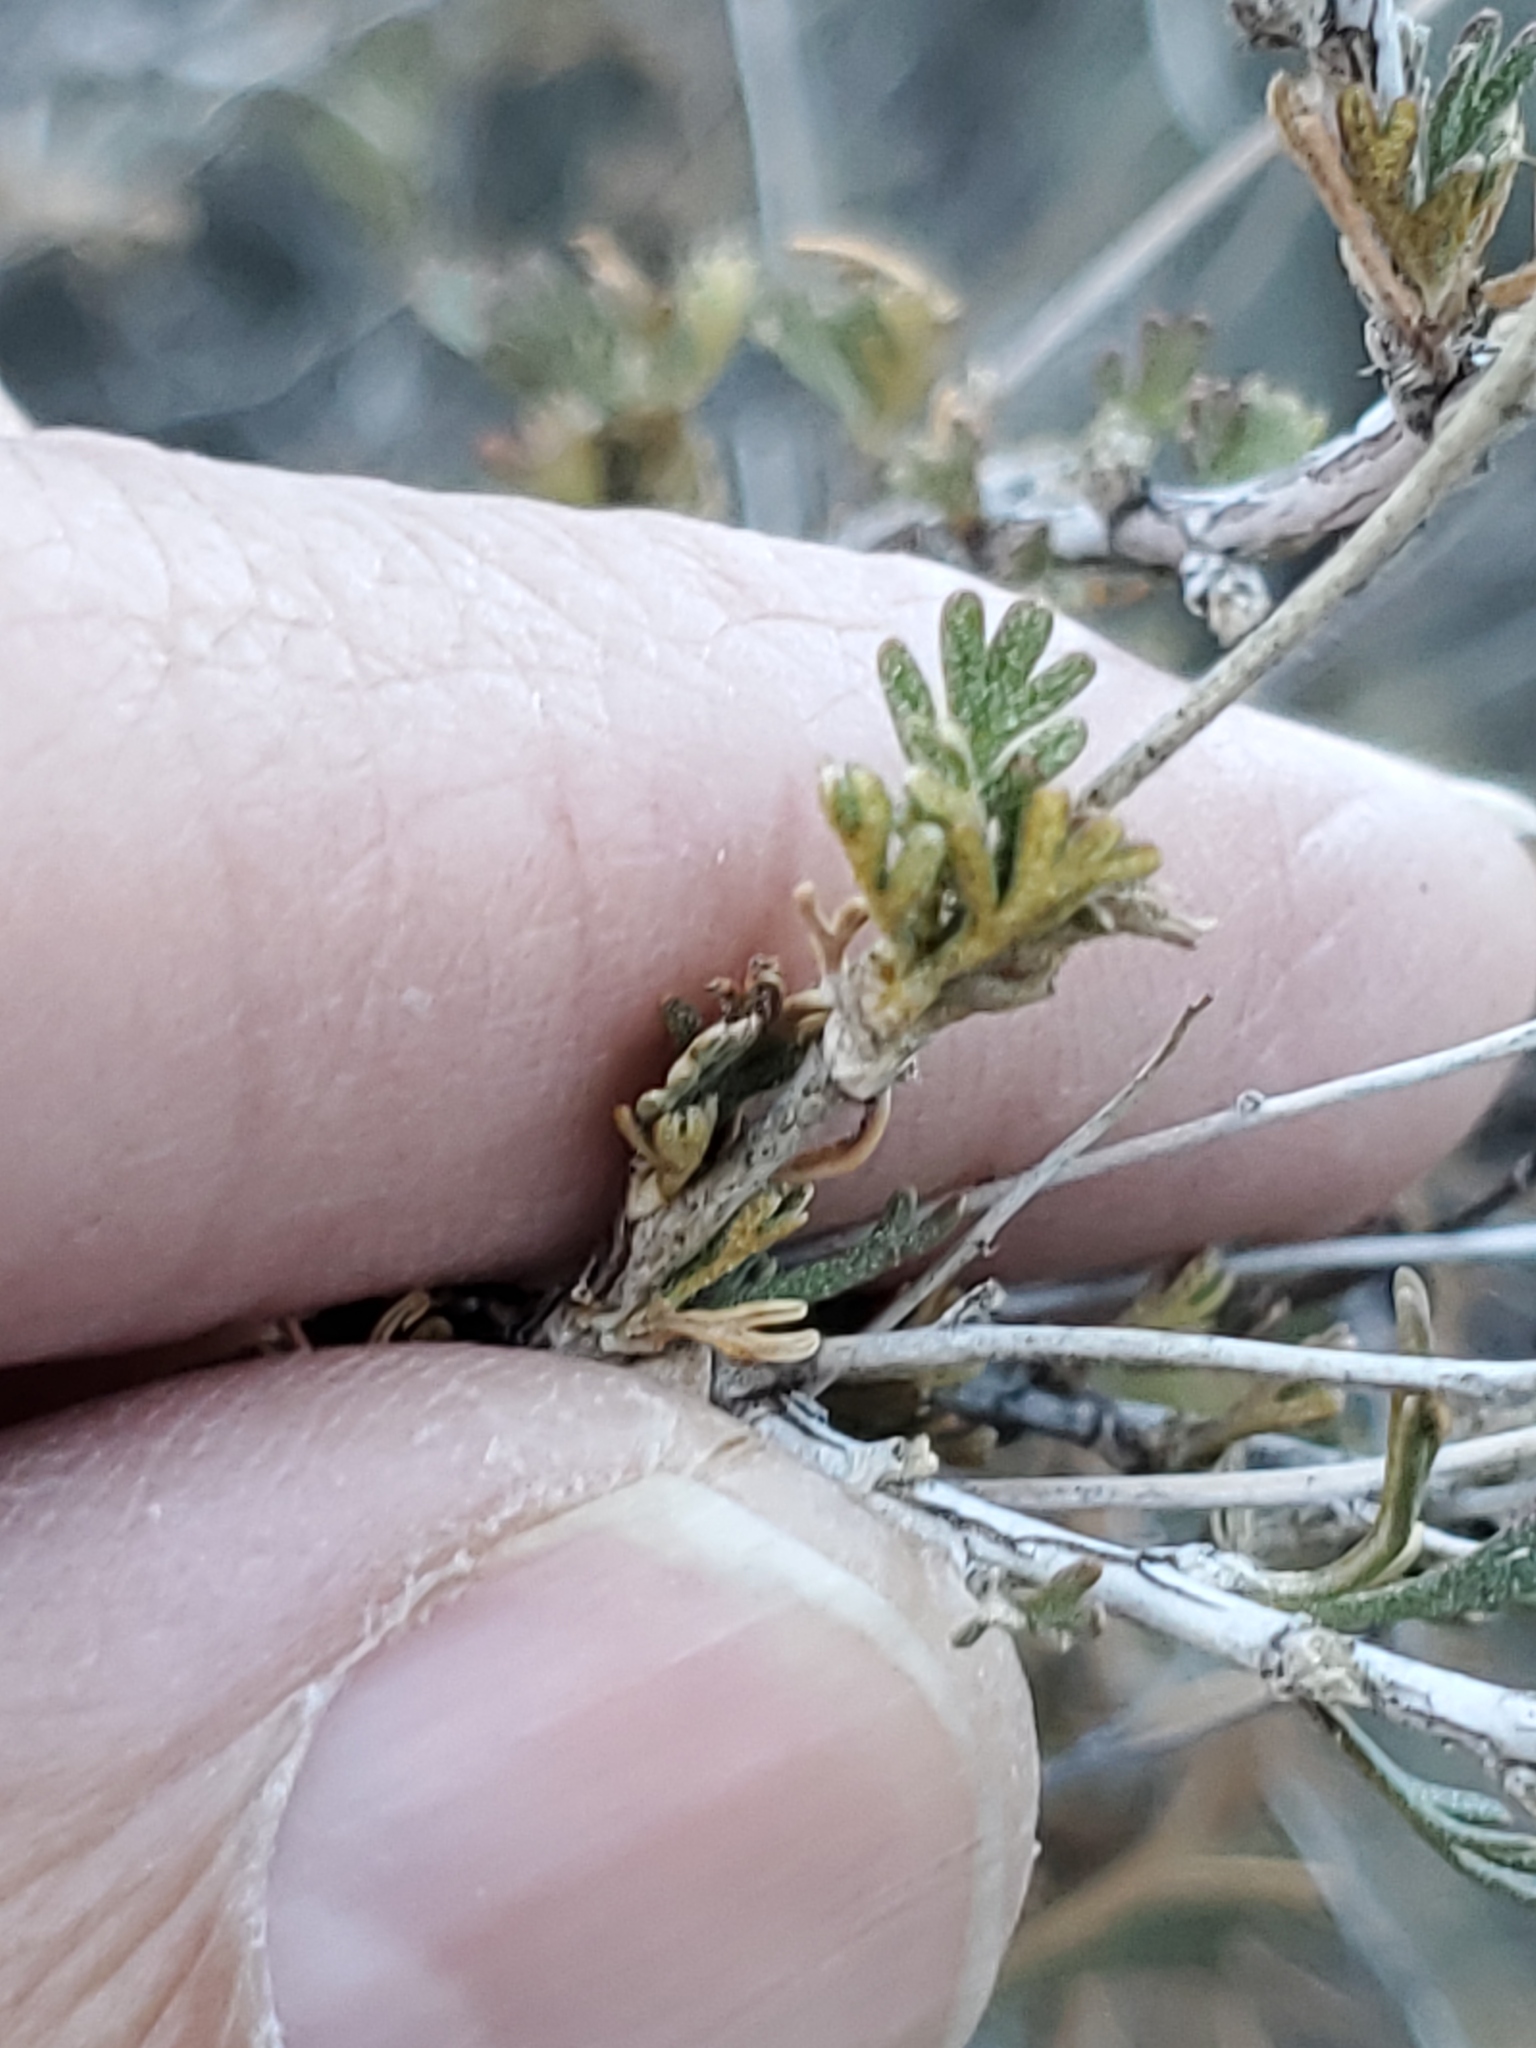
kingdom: Plantae
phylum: Tracheophyta
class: Magnoliopsida
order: Rosales
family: Rosaceae
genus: Fallugia
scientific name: Fallugia paradoxa
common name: Apache-plume
